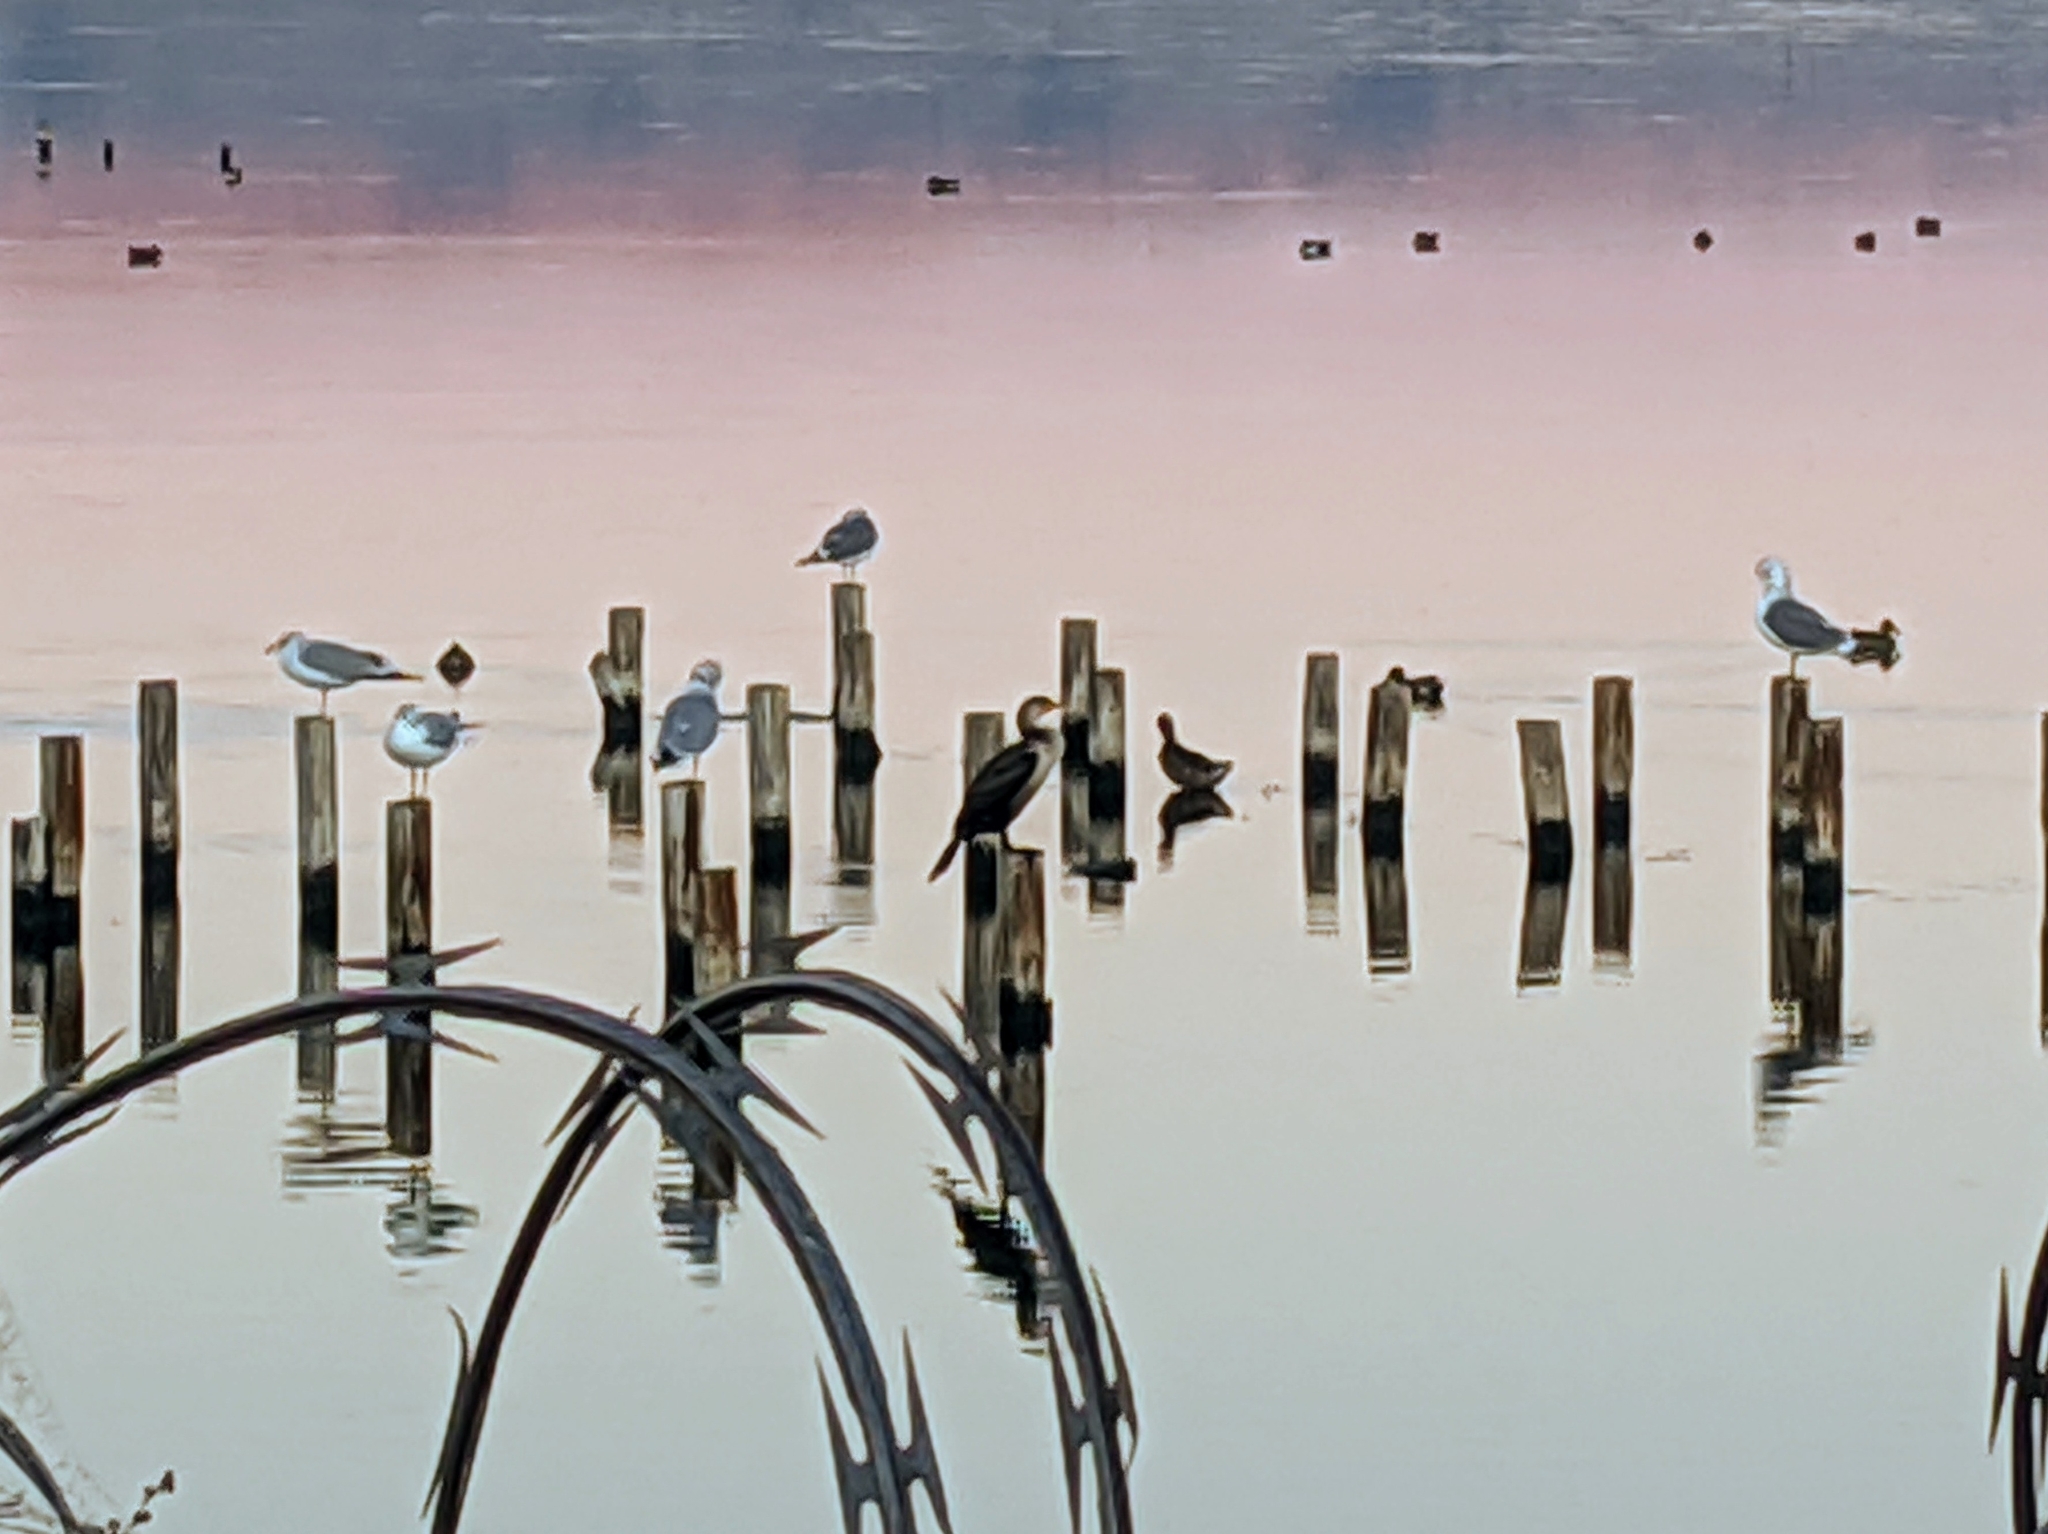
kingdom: Animalia
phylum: Chordata
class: Aves
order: Suliformes
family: Phalacrocoracidae
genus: Phalacrocorax
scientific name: Phalacrocorax auritus
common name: Double-crested cormorant
